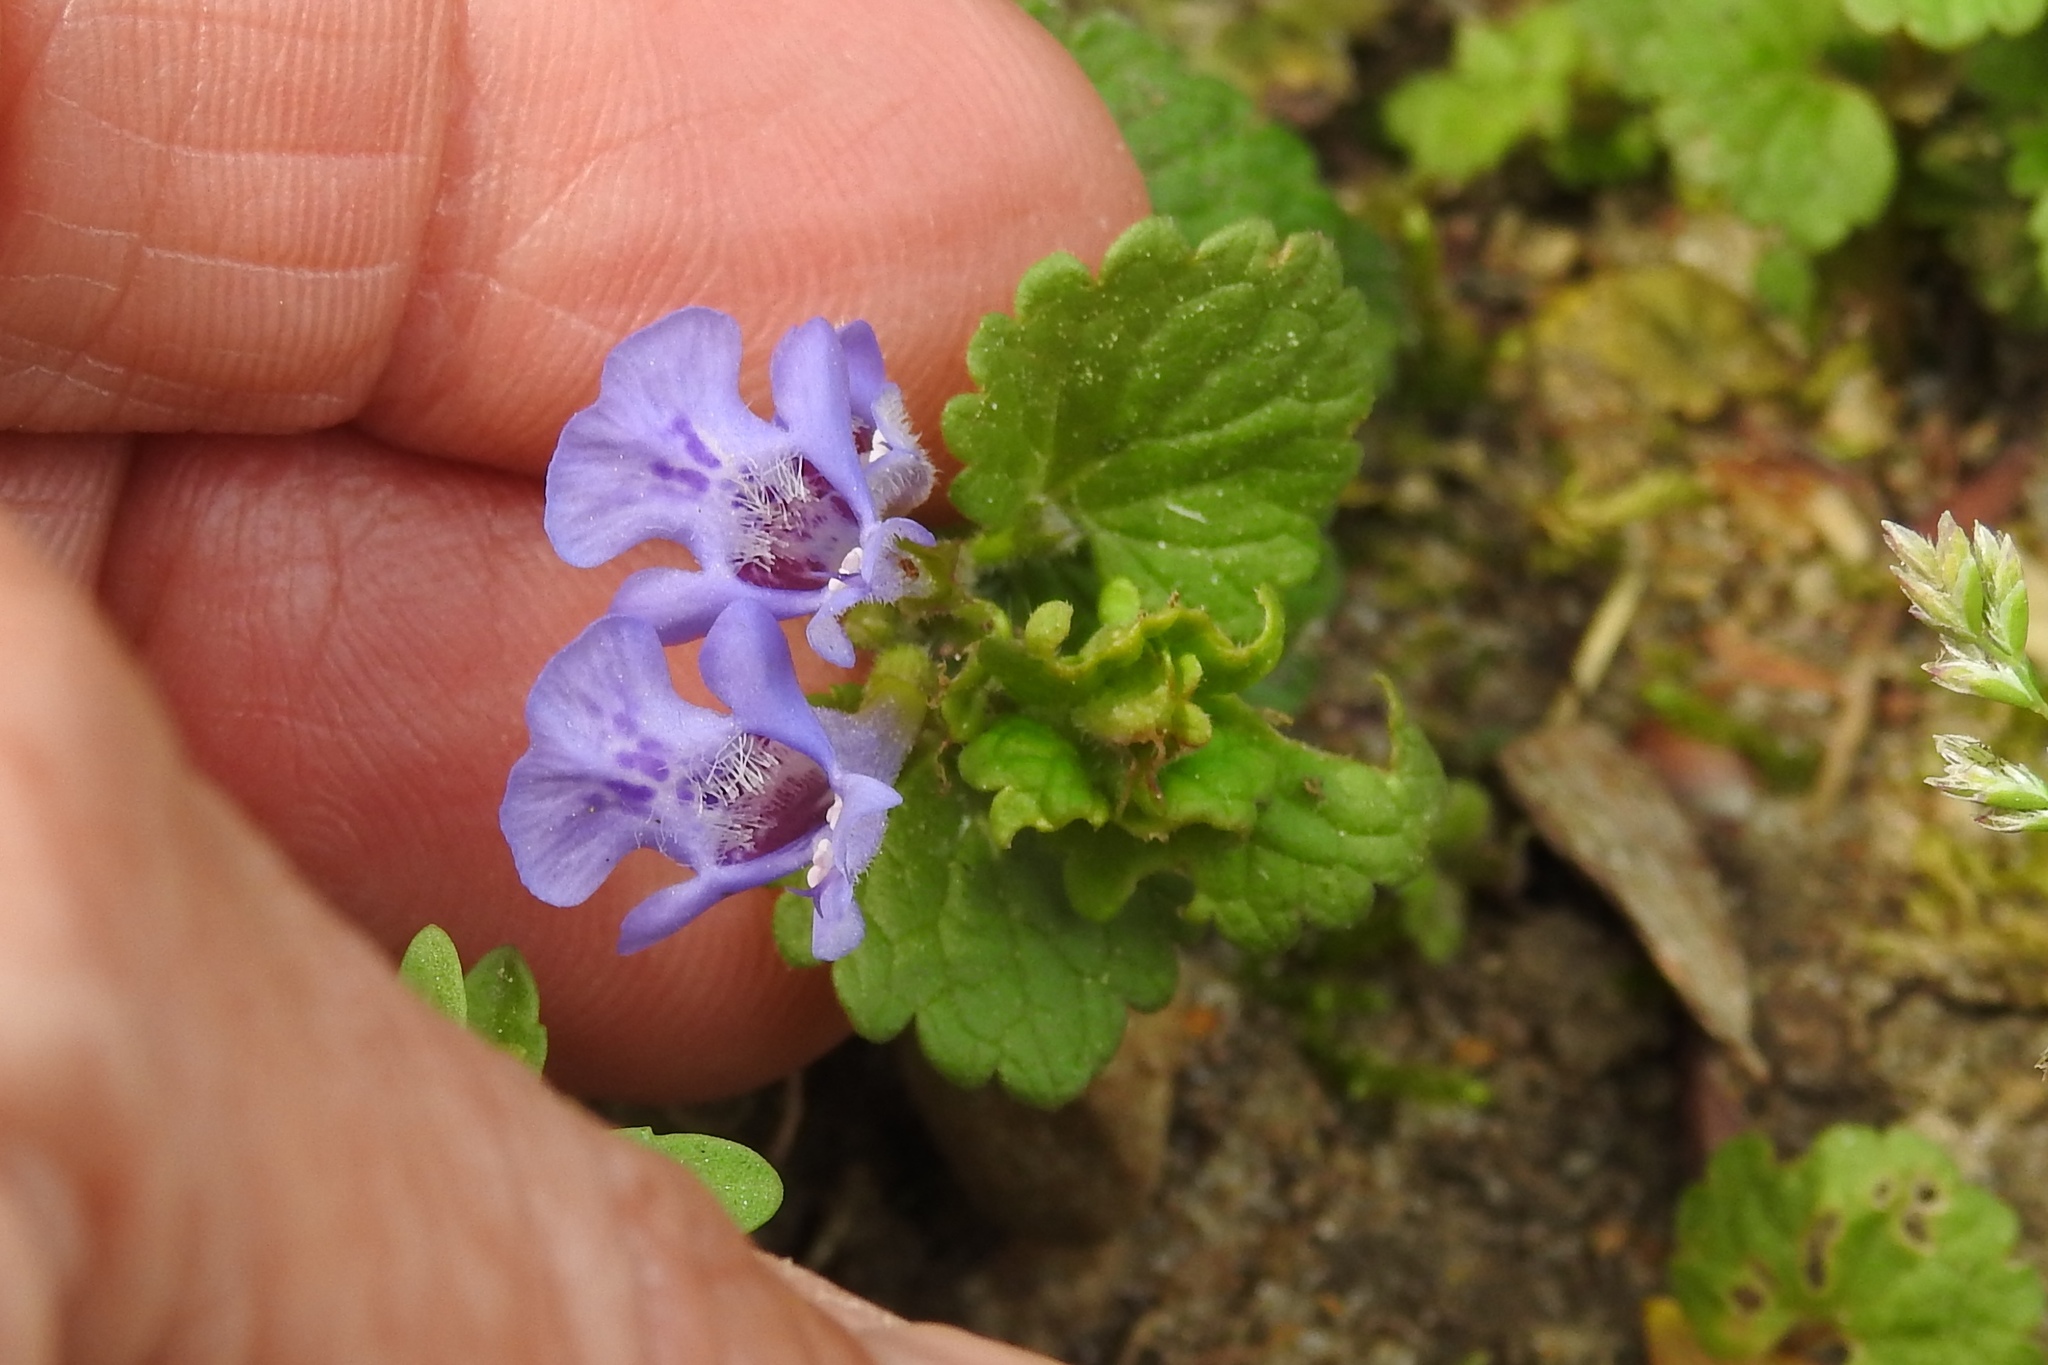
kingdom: Plantae
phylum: Tracheophyta
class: Magnoliopsida
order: Lamiales
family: Lamiaceae
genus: Glechoma
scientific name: Glechoma hederacea
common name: Ground ivy
